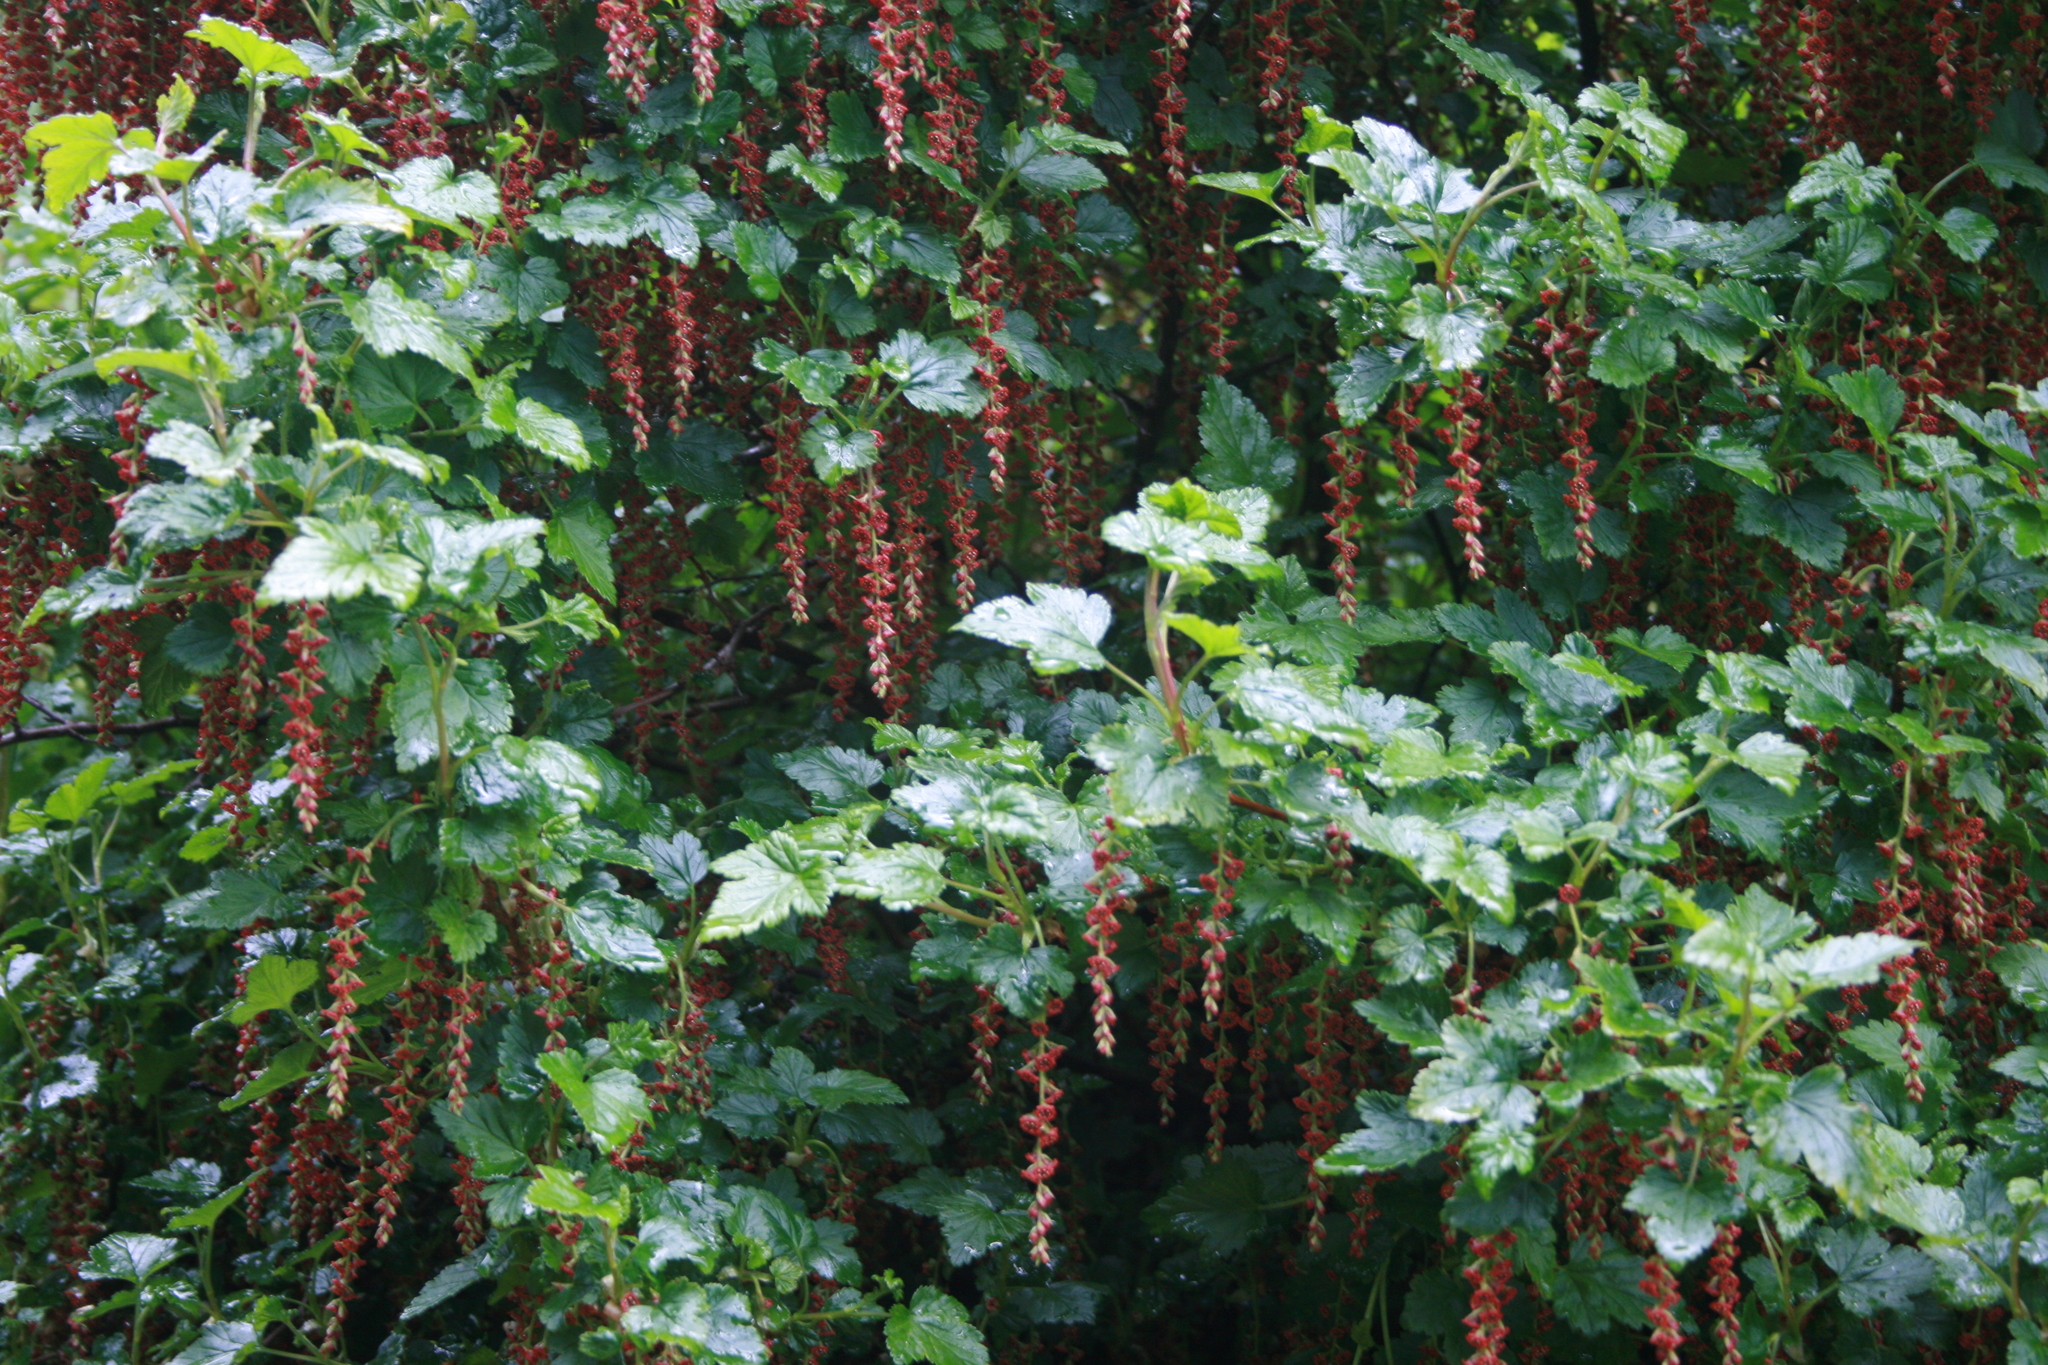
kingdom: Plantae
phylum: Tracheophyta
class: Magnoliopsida
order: Saxifragales
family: Grossulariaceae
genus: Ribes
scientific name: Ribes magellanicum
